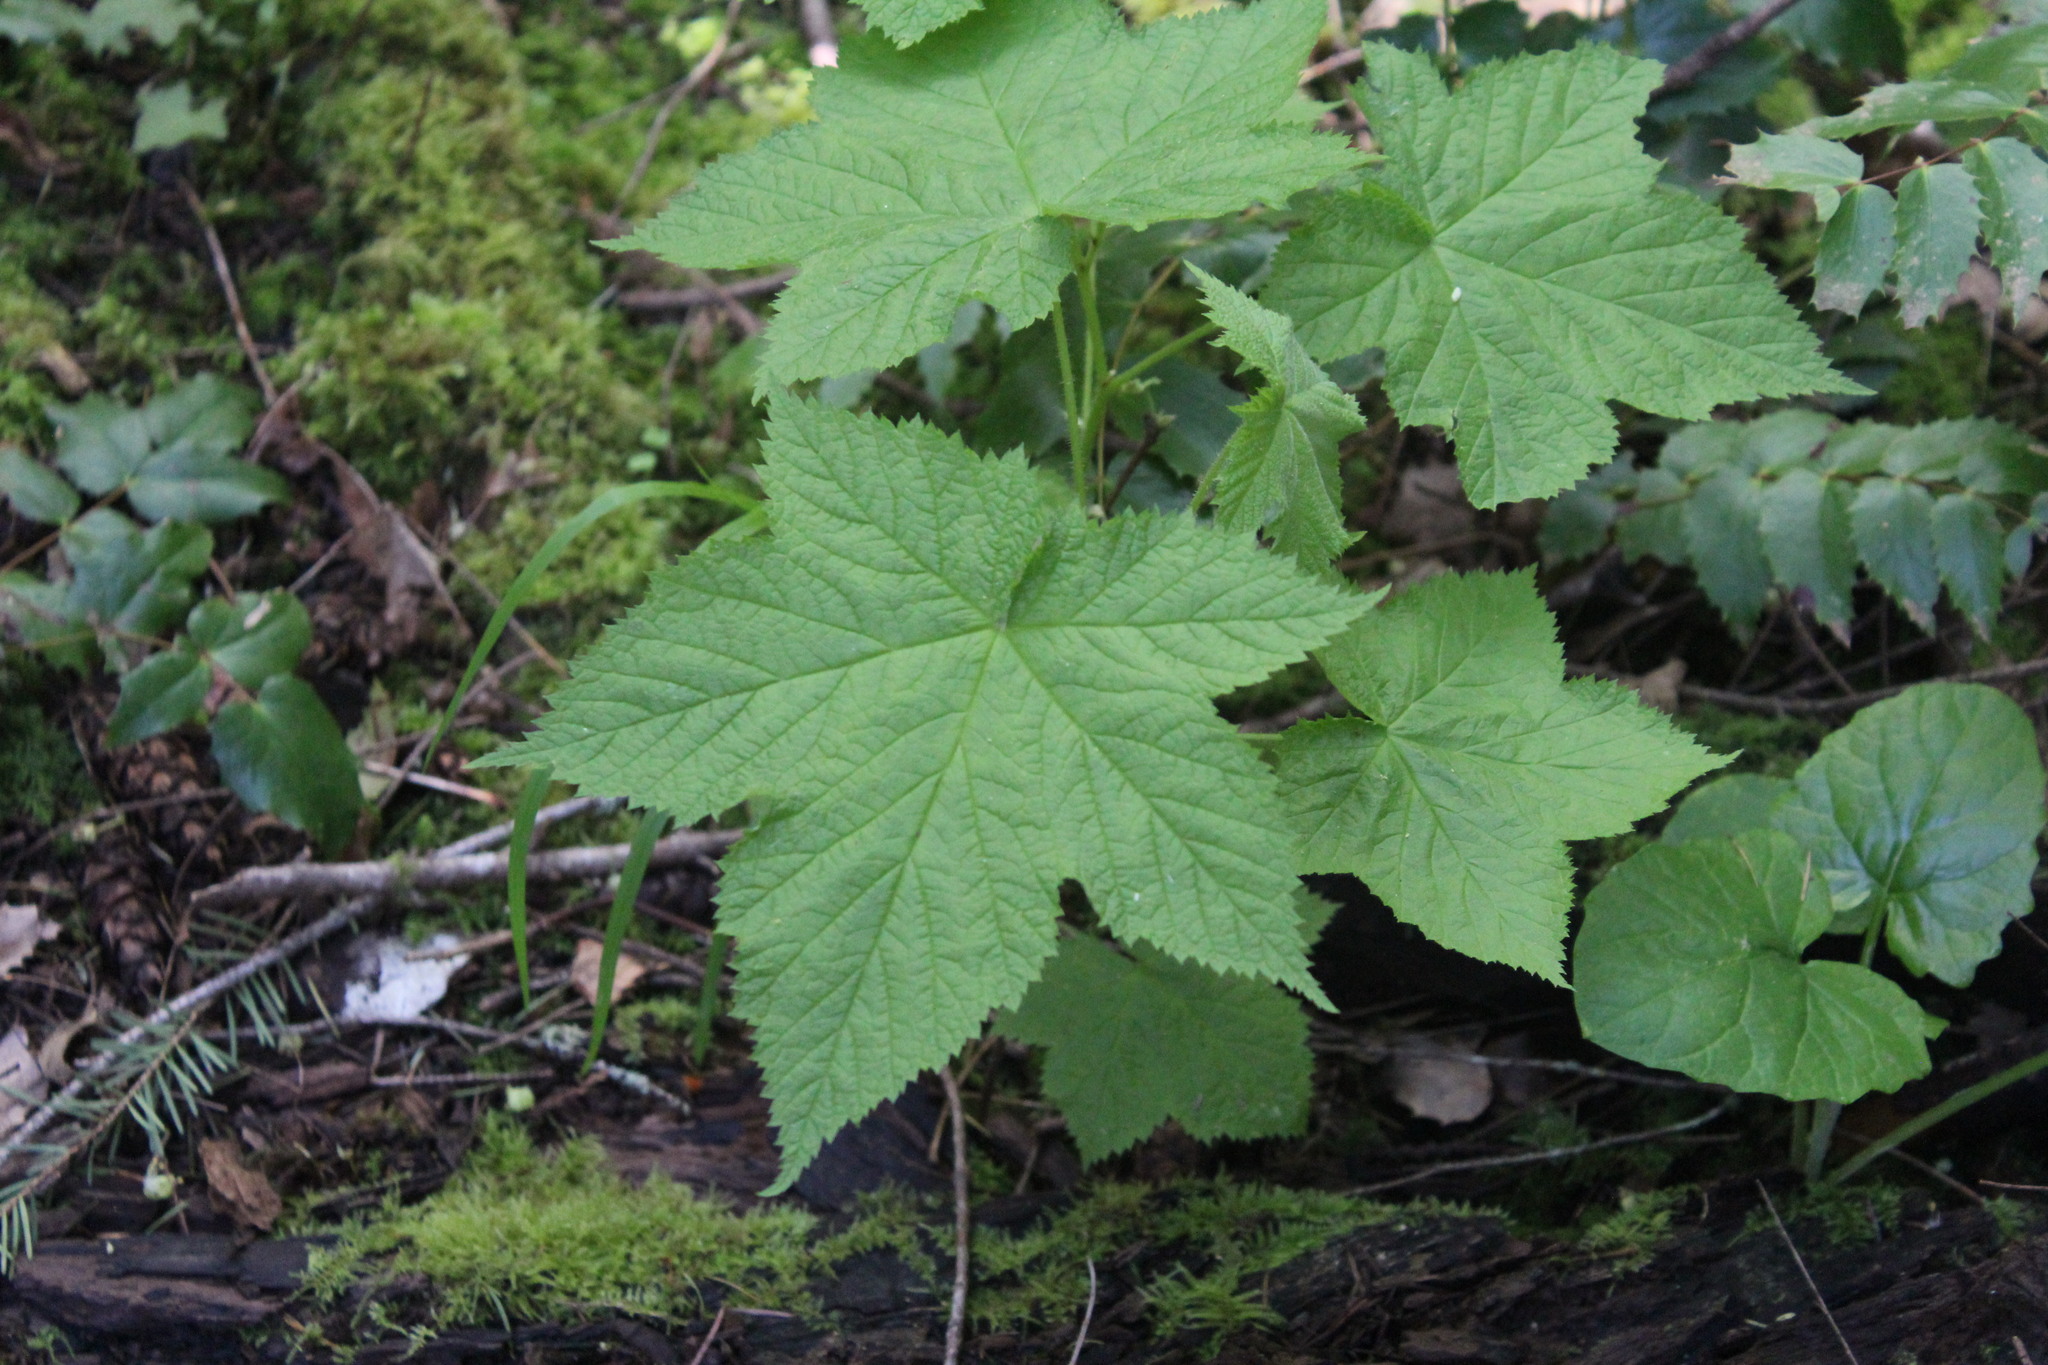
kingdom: Plantae
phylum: Tracheophyta
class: Magnoliopsida
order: Rosales
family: Rosaceae
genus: Rubus
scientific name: Rubus parviflorus
